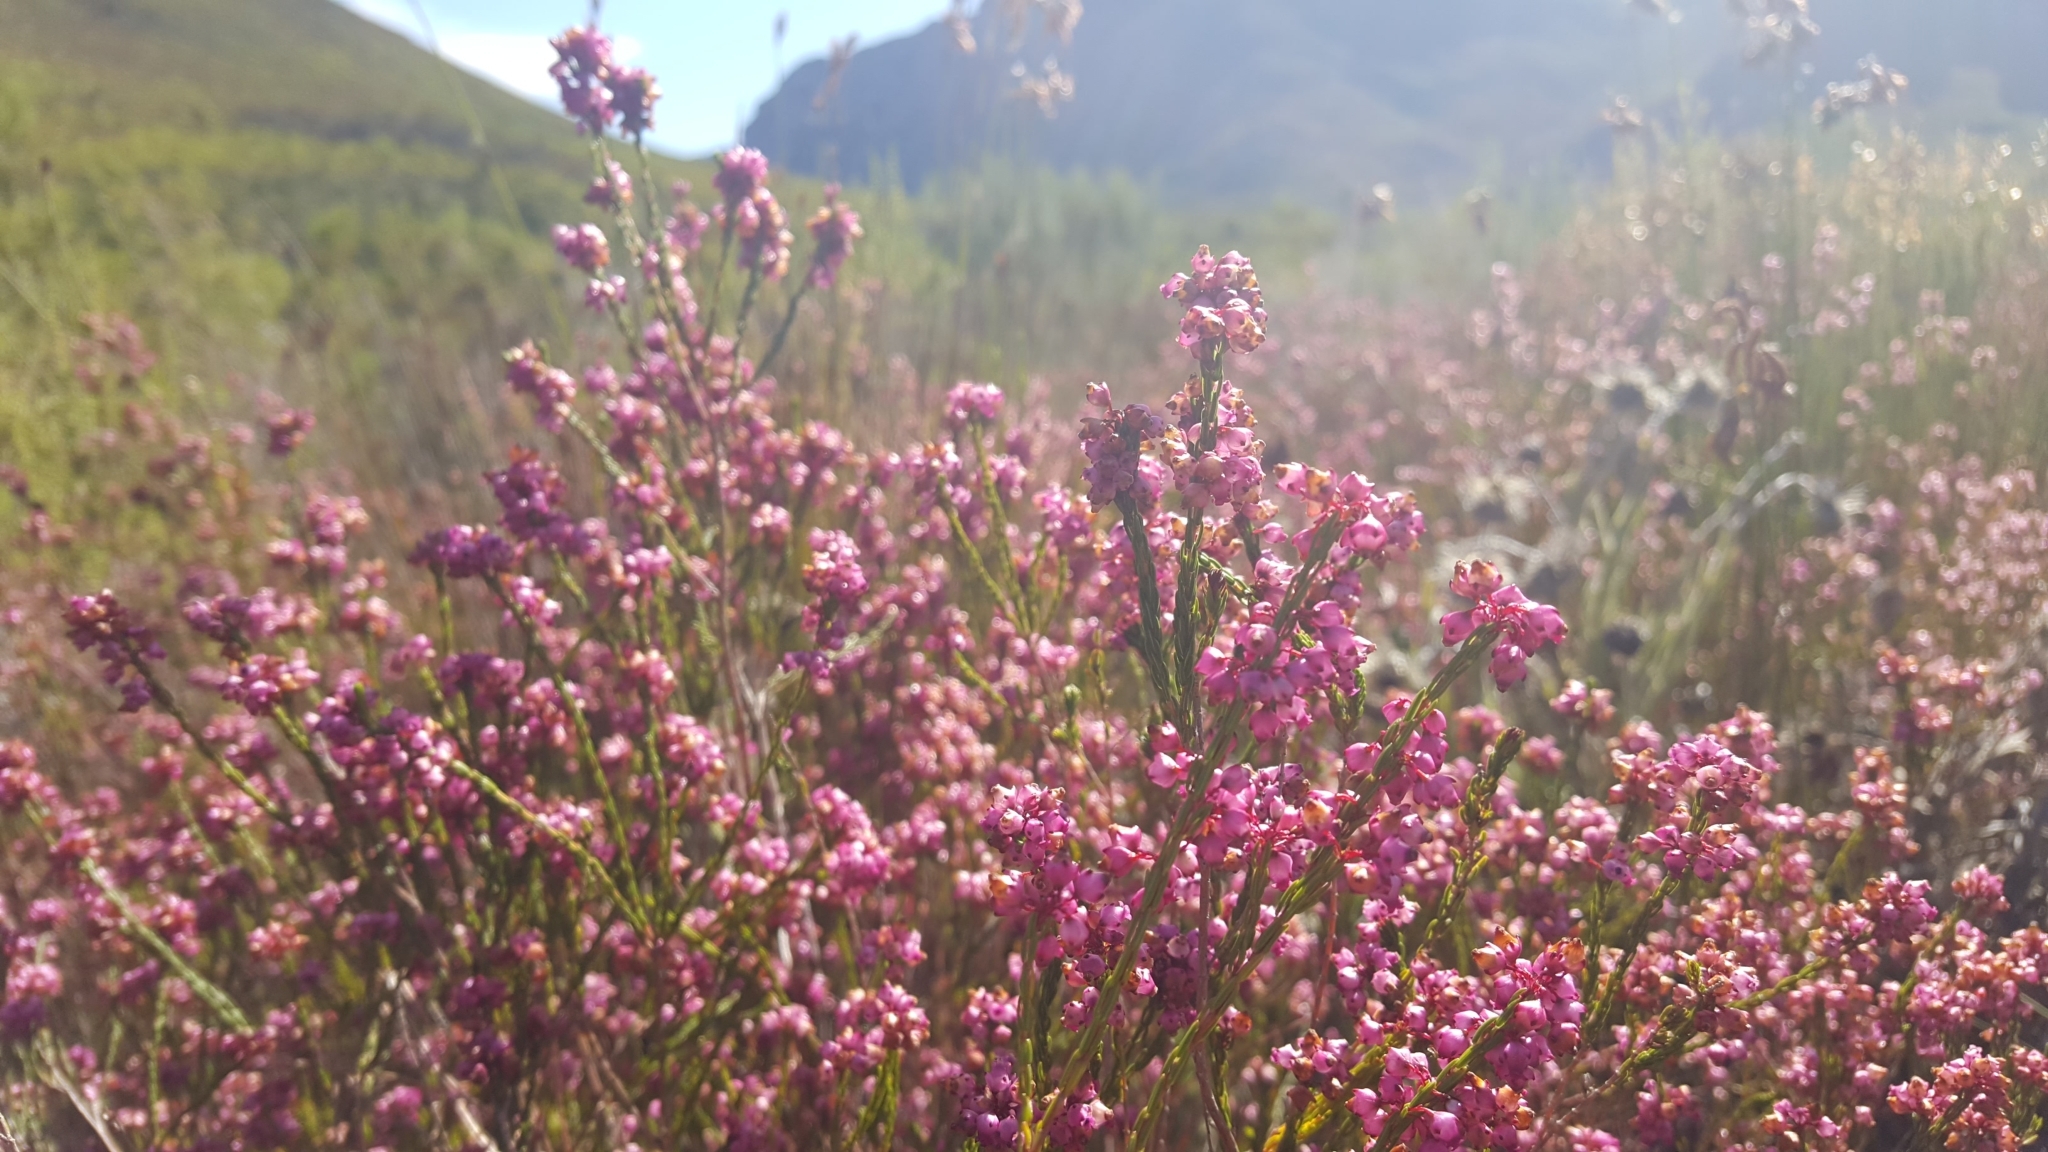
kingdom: Plantae
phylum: Tracheophyta
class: Magnoliopsida
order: Ericales
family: Ericaceae
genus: Erica
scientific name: Erica corifolia
